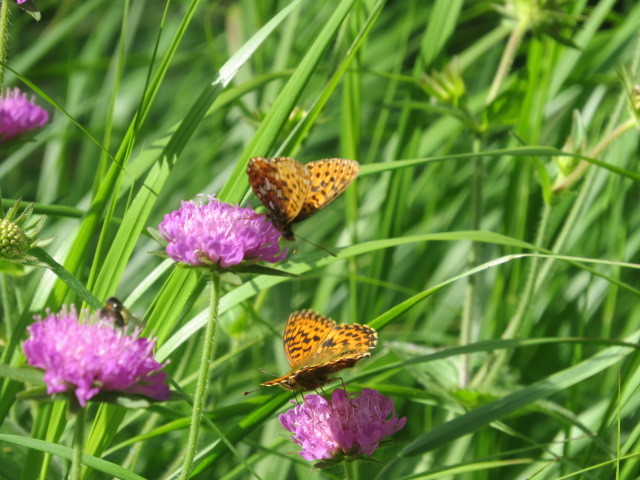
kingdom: Animalia
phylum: Arthropoda
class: Insecta
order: Lepidoptera
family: Nymphalidae
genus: Boloria
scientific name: Boloria titania
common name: Titania's fritillary
